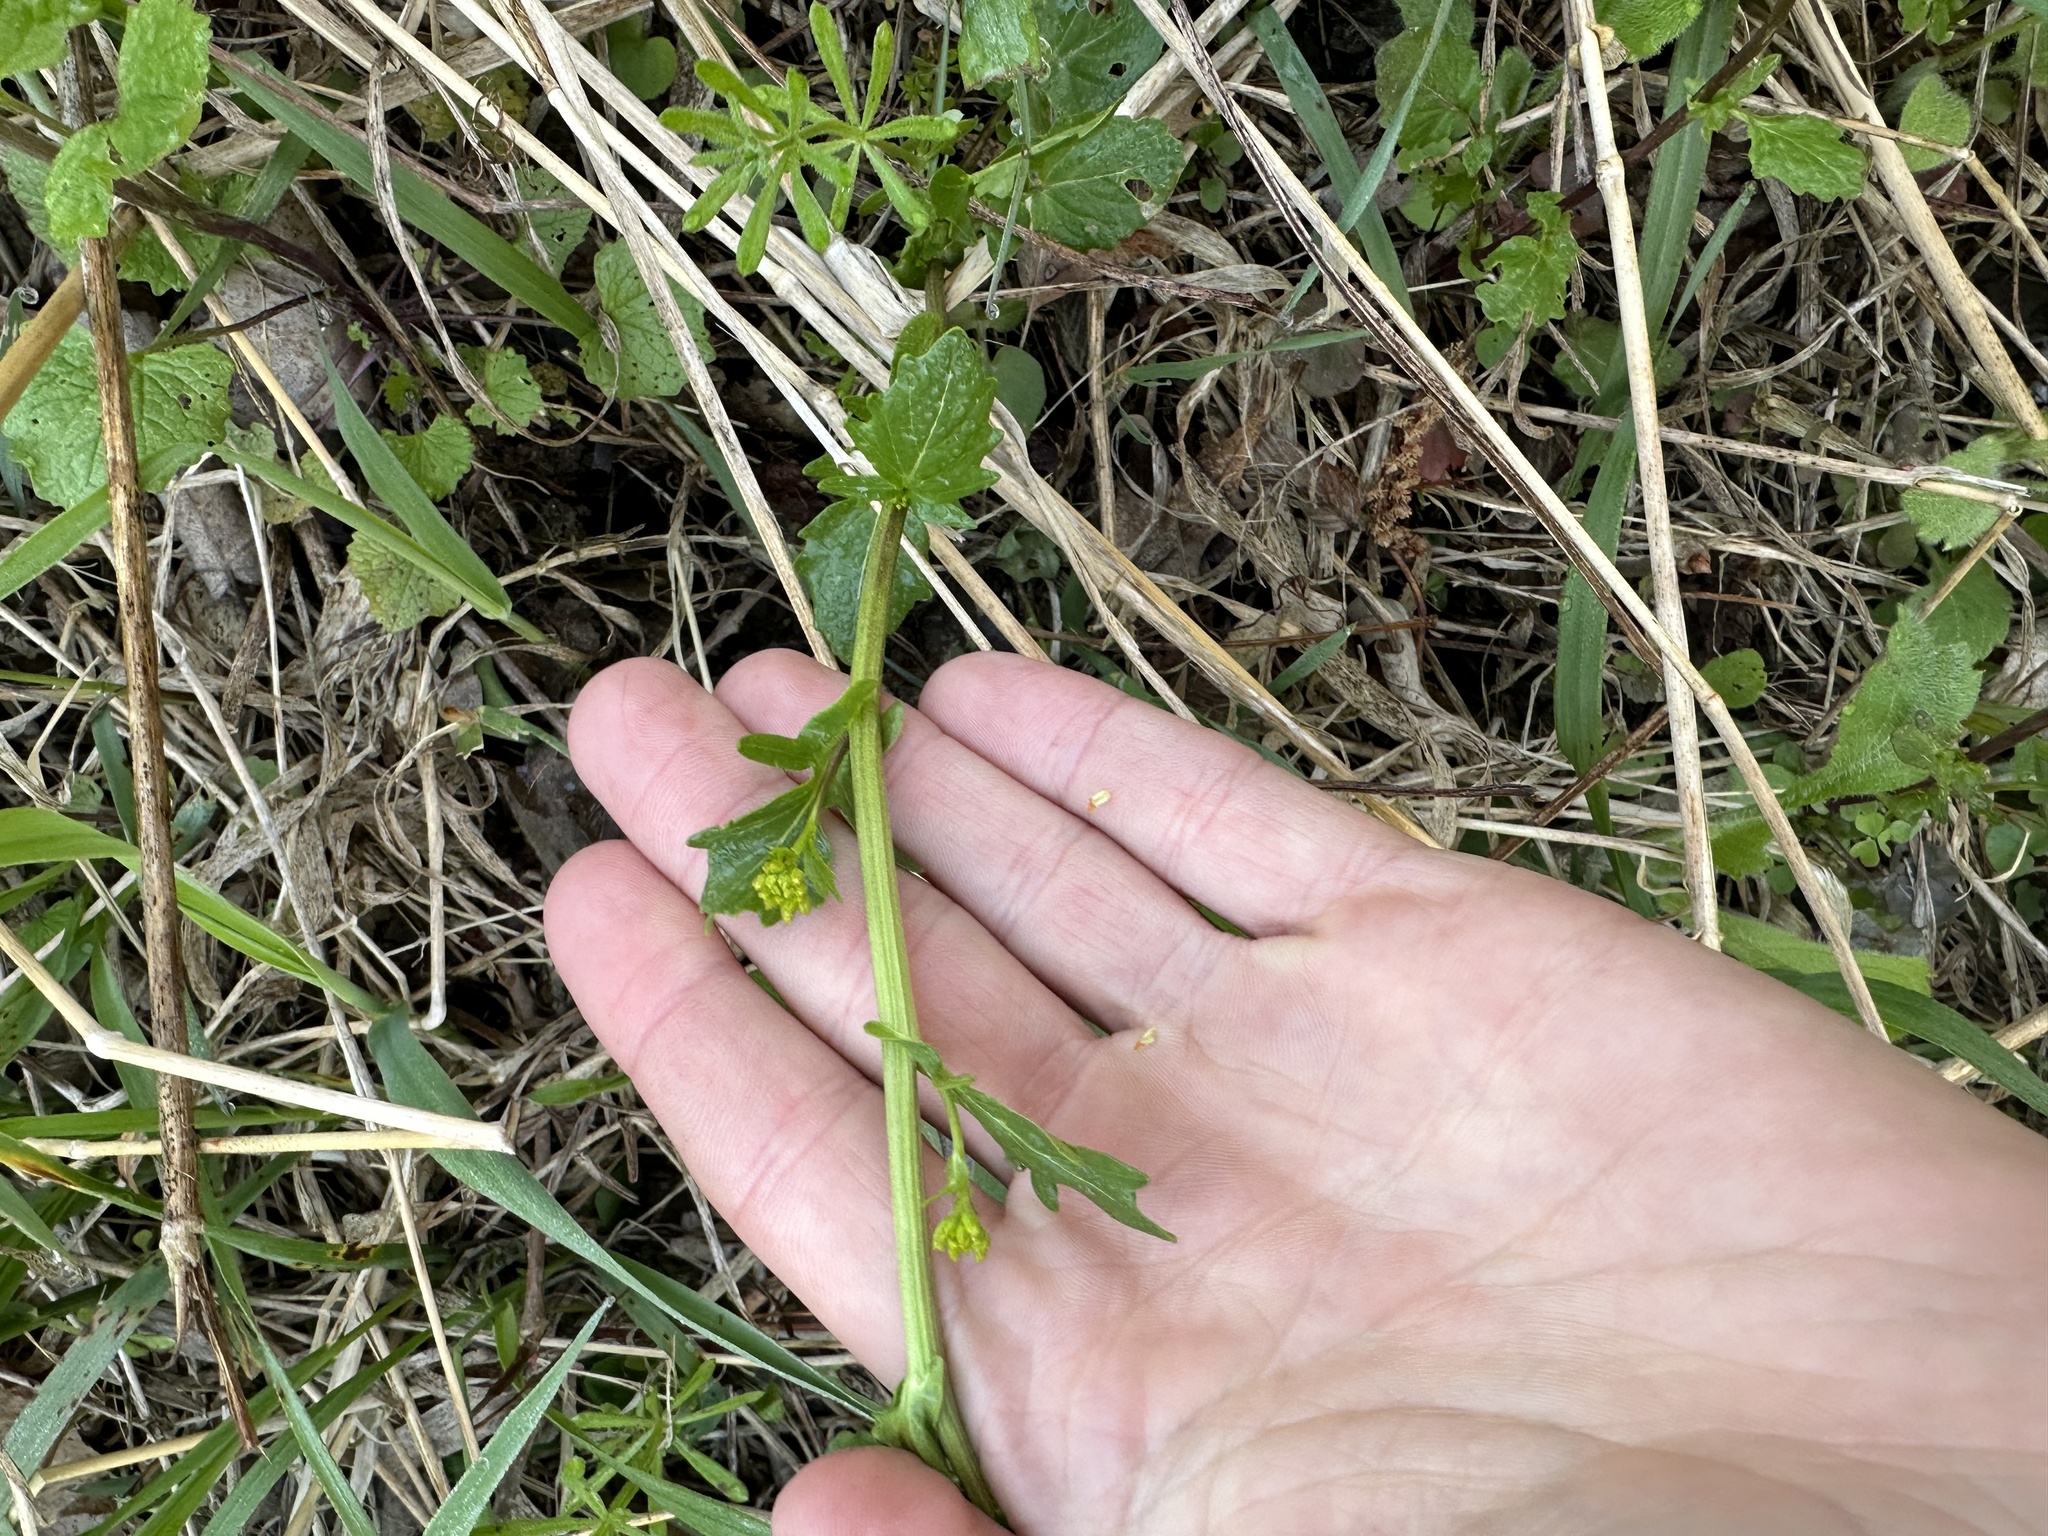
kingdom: Plantae
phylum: Tracheophyta
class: Magnoliopsida
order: Brassicales
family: Brassicaceae
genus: Barbarea
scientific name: Barbarea vulgaris
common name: Cressy-greens
